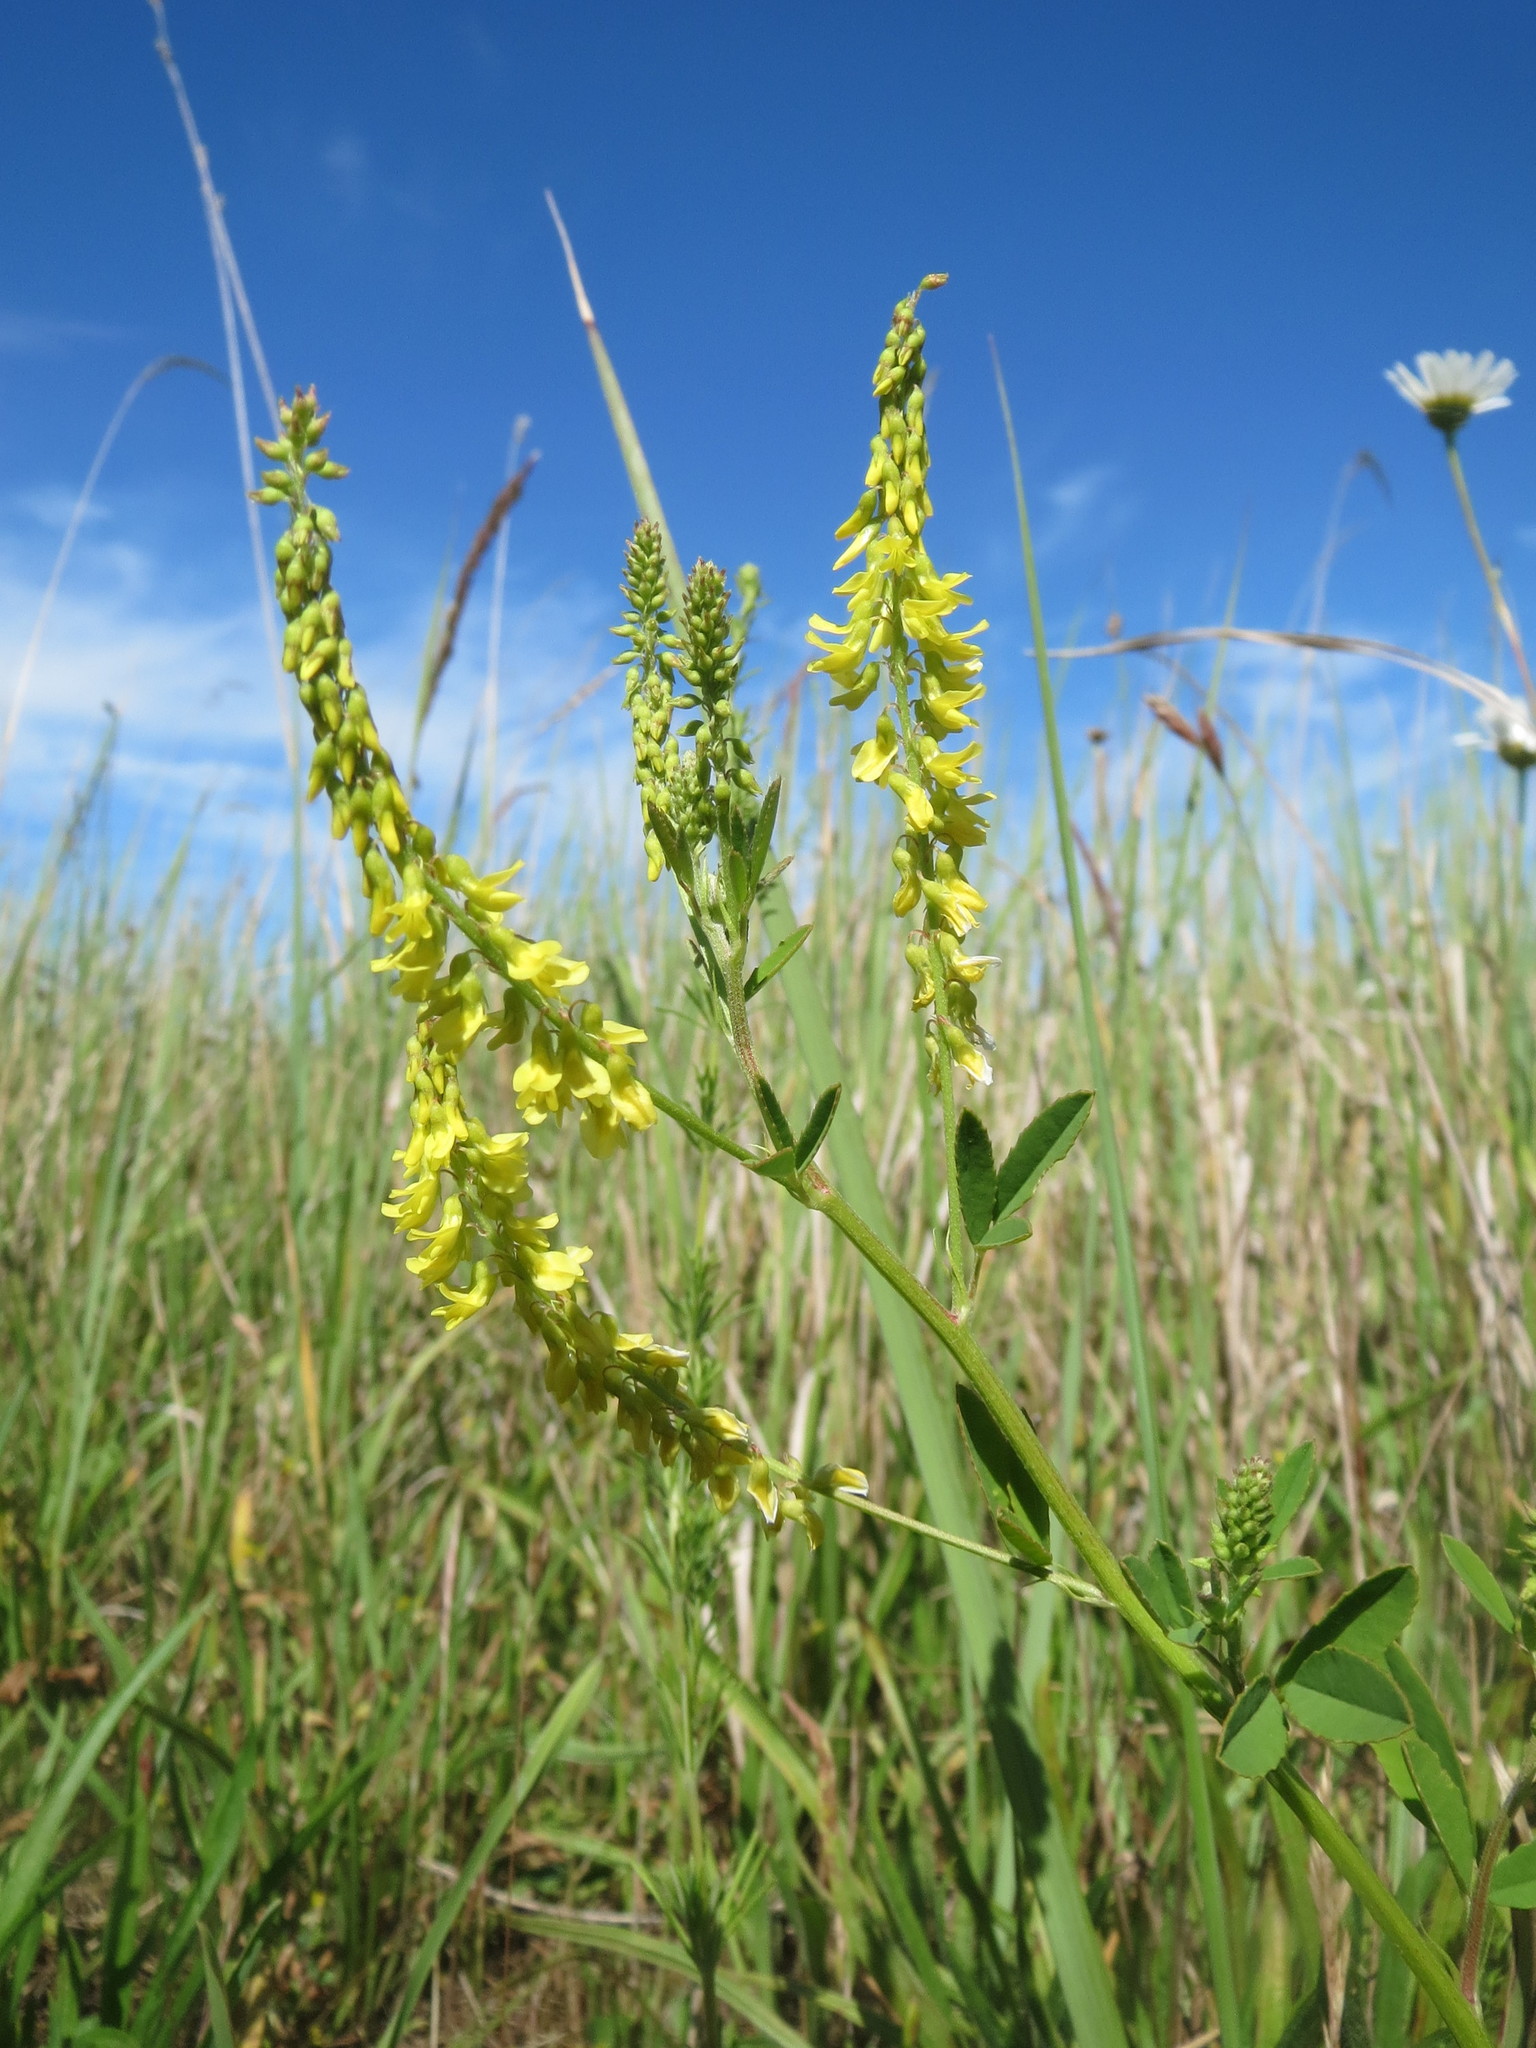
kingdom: Plantae
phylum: Tracheophyta
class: Magnoliopsida
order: Fabales
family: Fabaceae
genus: Melilotus
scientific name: Melilotus officinalis
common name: Sweetclover
